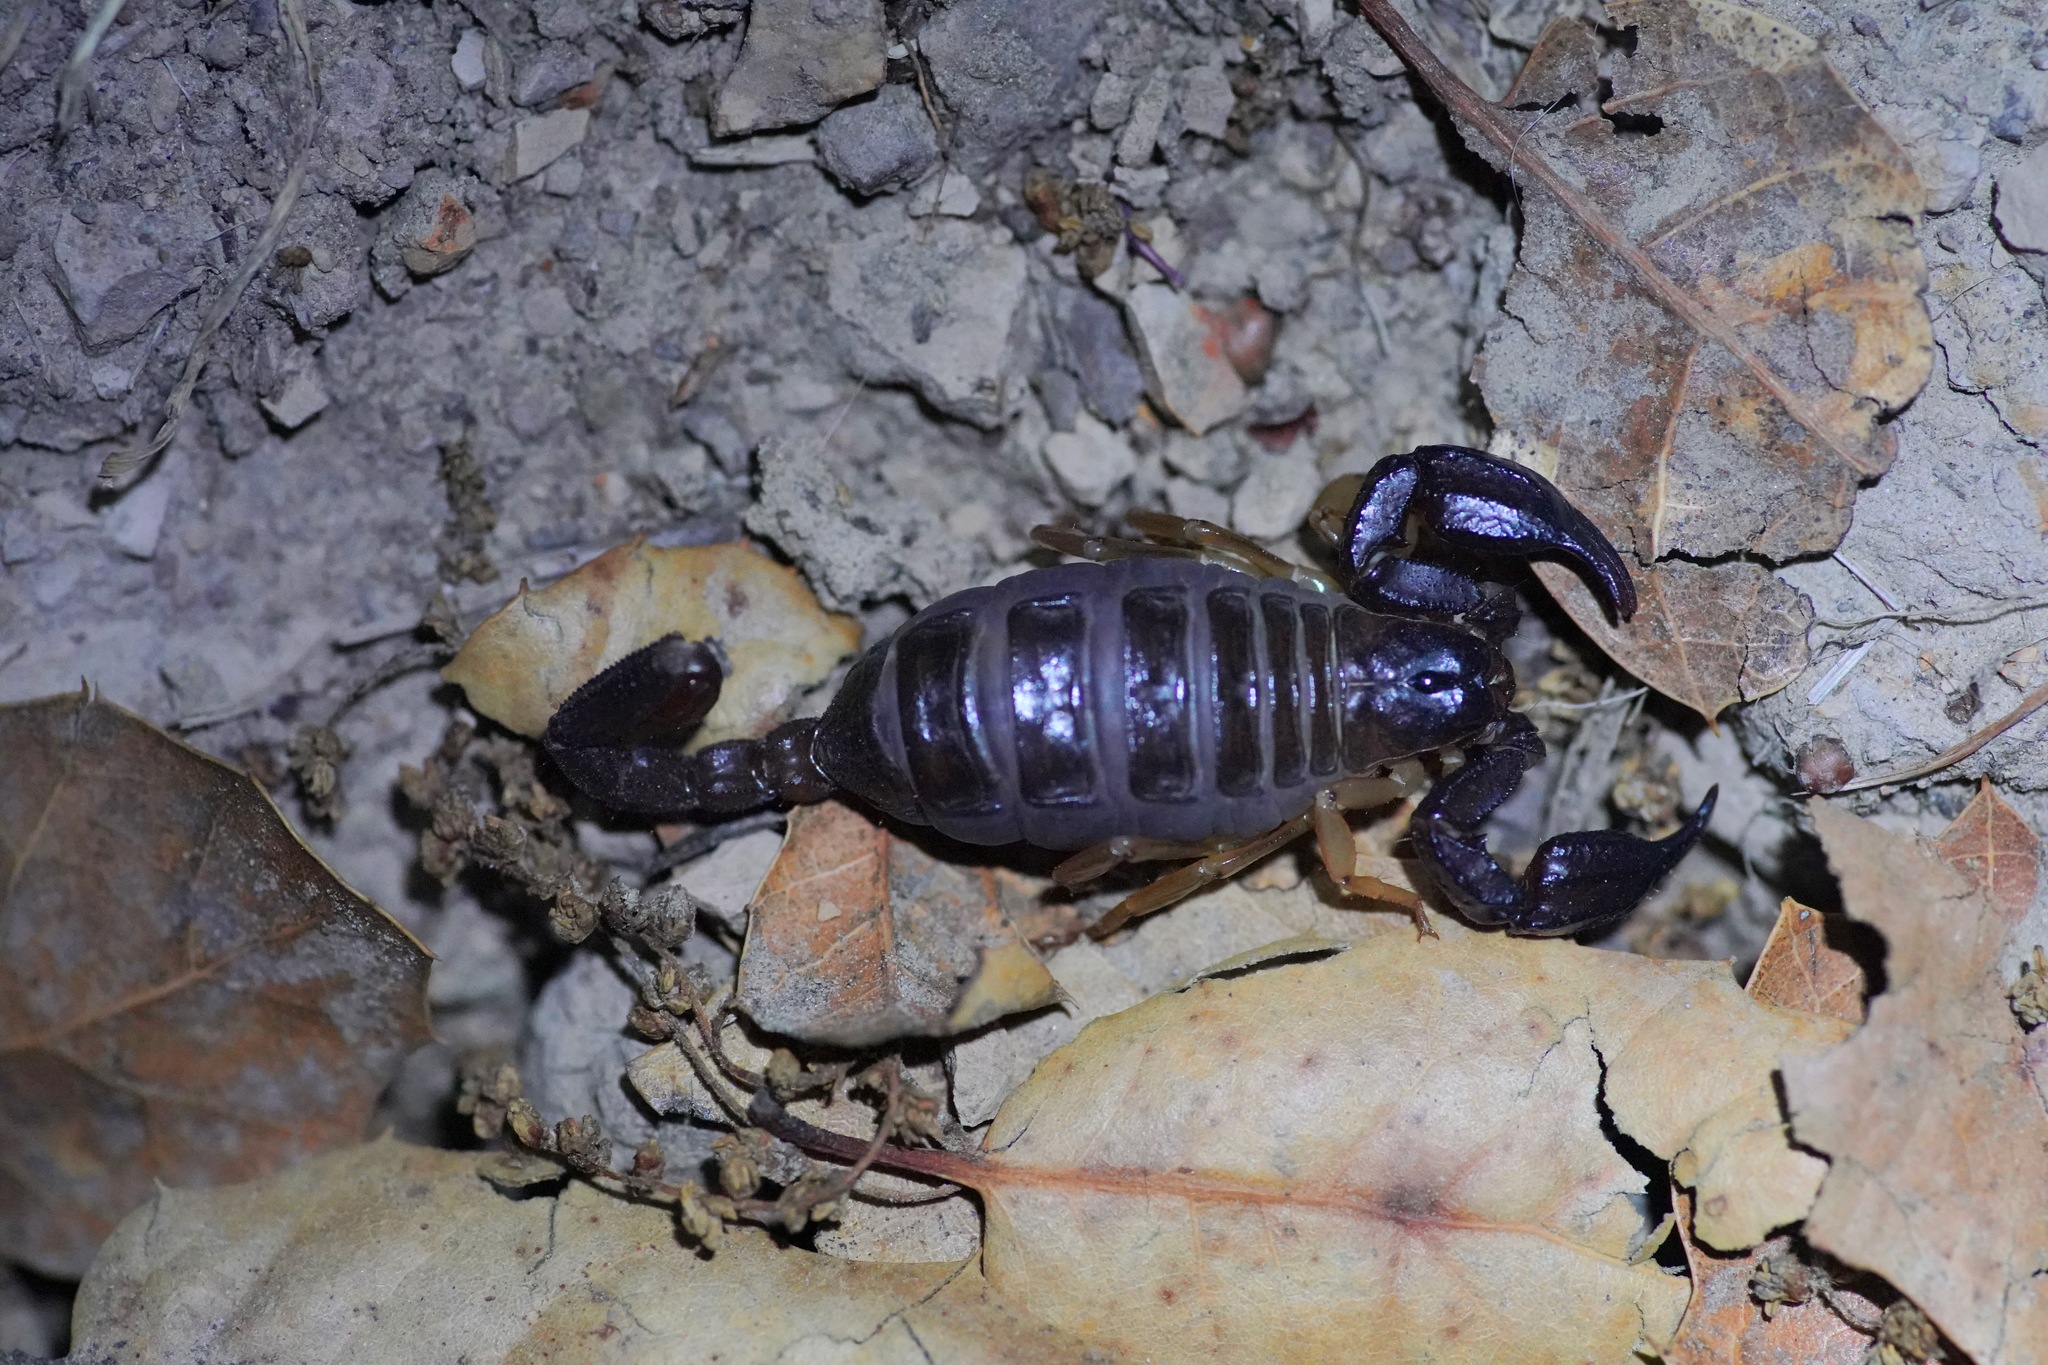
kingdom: Animalia
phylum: Arthropoda
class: Arachnida
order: Scorpiones
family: Chactidae
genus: Uroctonus
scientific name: Uroctonus mordax
